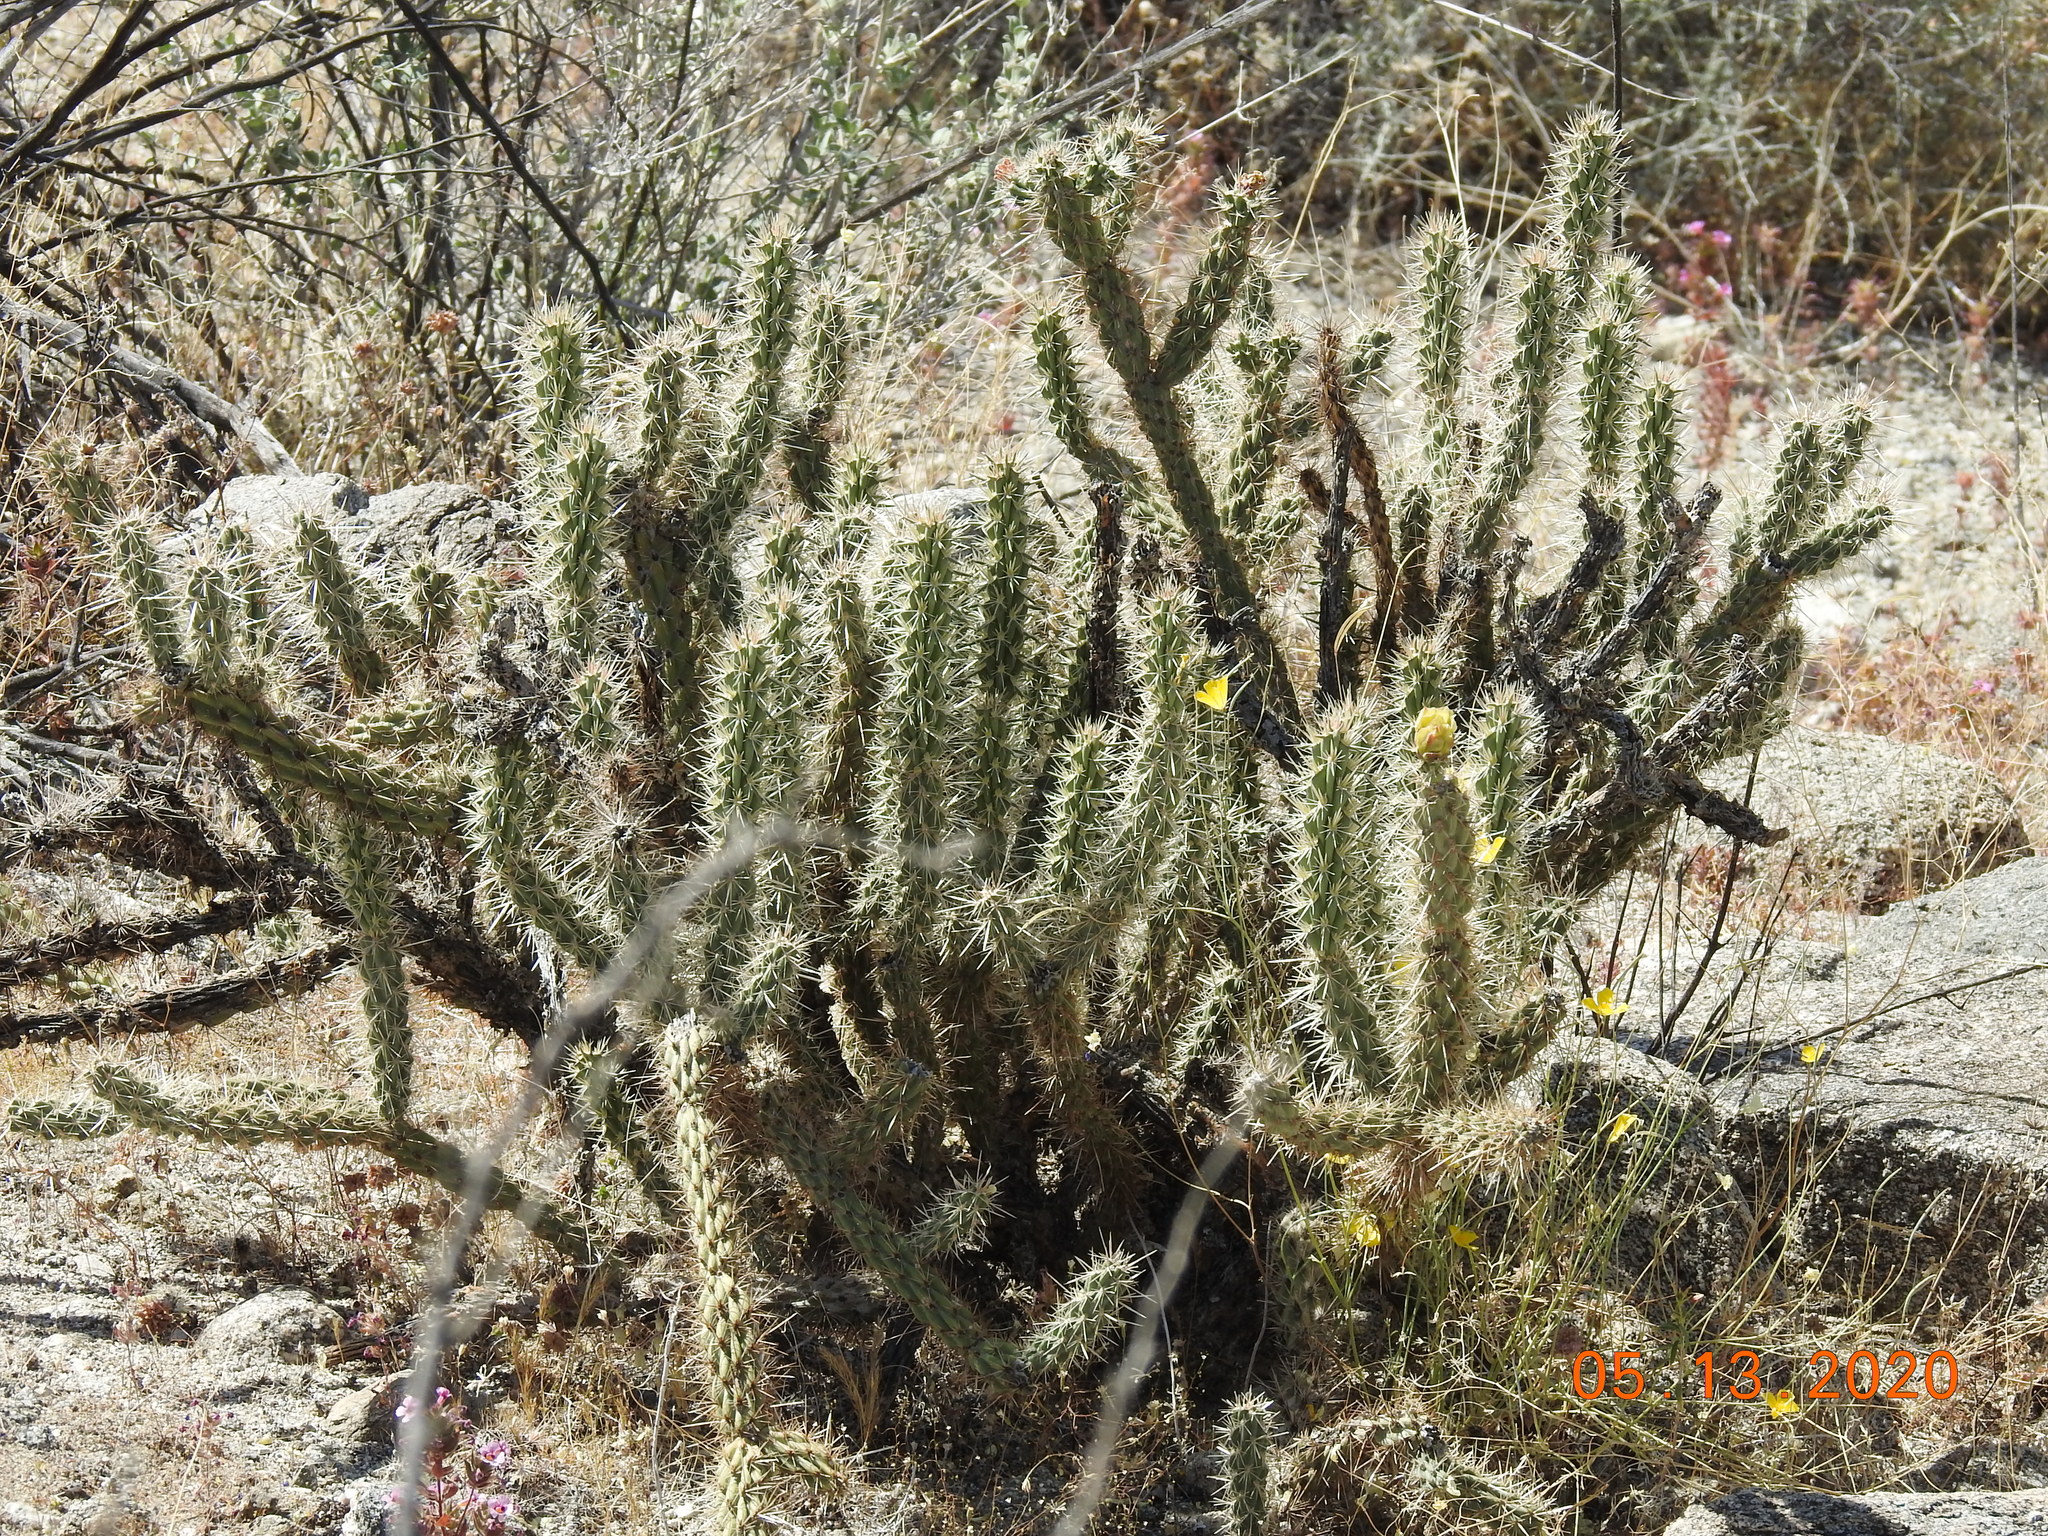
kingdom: Plantae
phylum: Tracheophyta
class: Magnoliopsida
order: Caryophyllales
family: Cactaceae
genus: Cylindropuntia
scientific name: Cylindropuntia ganderi
